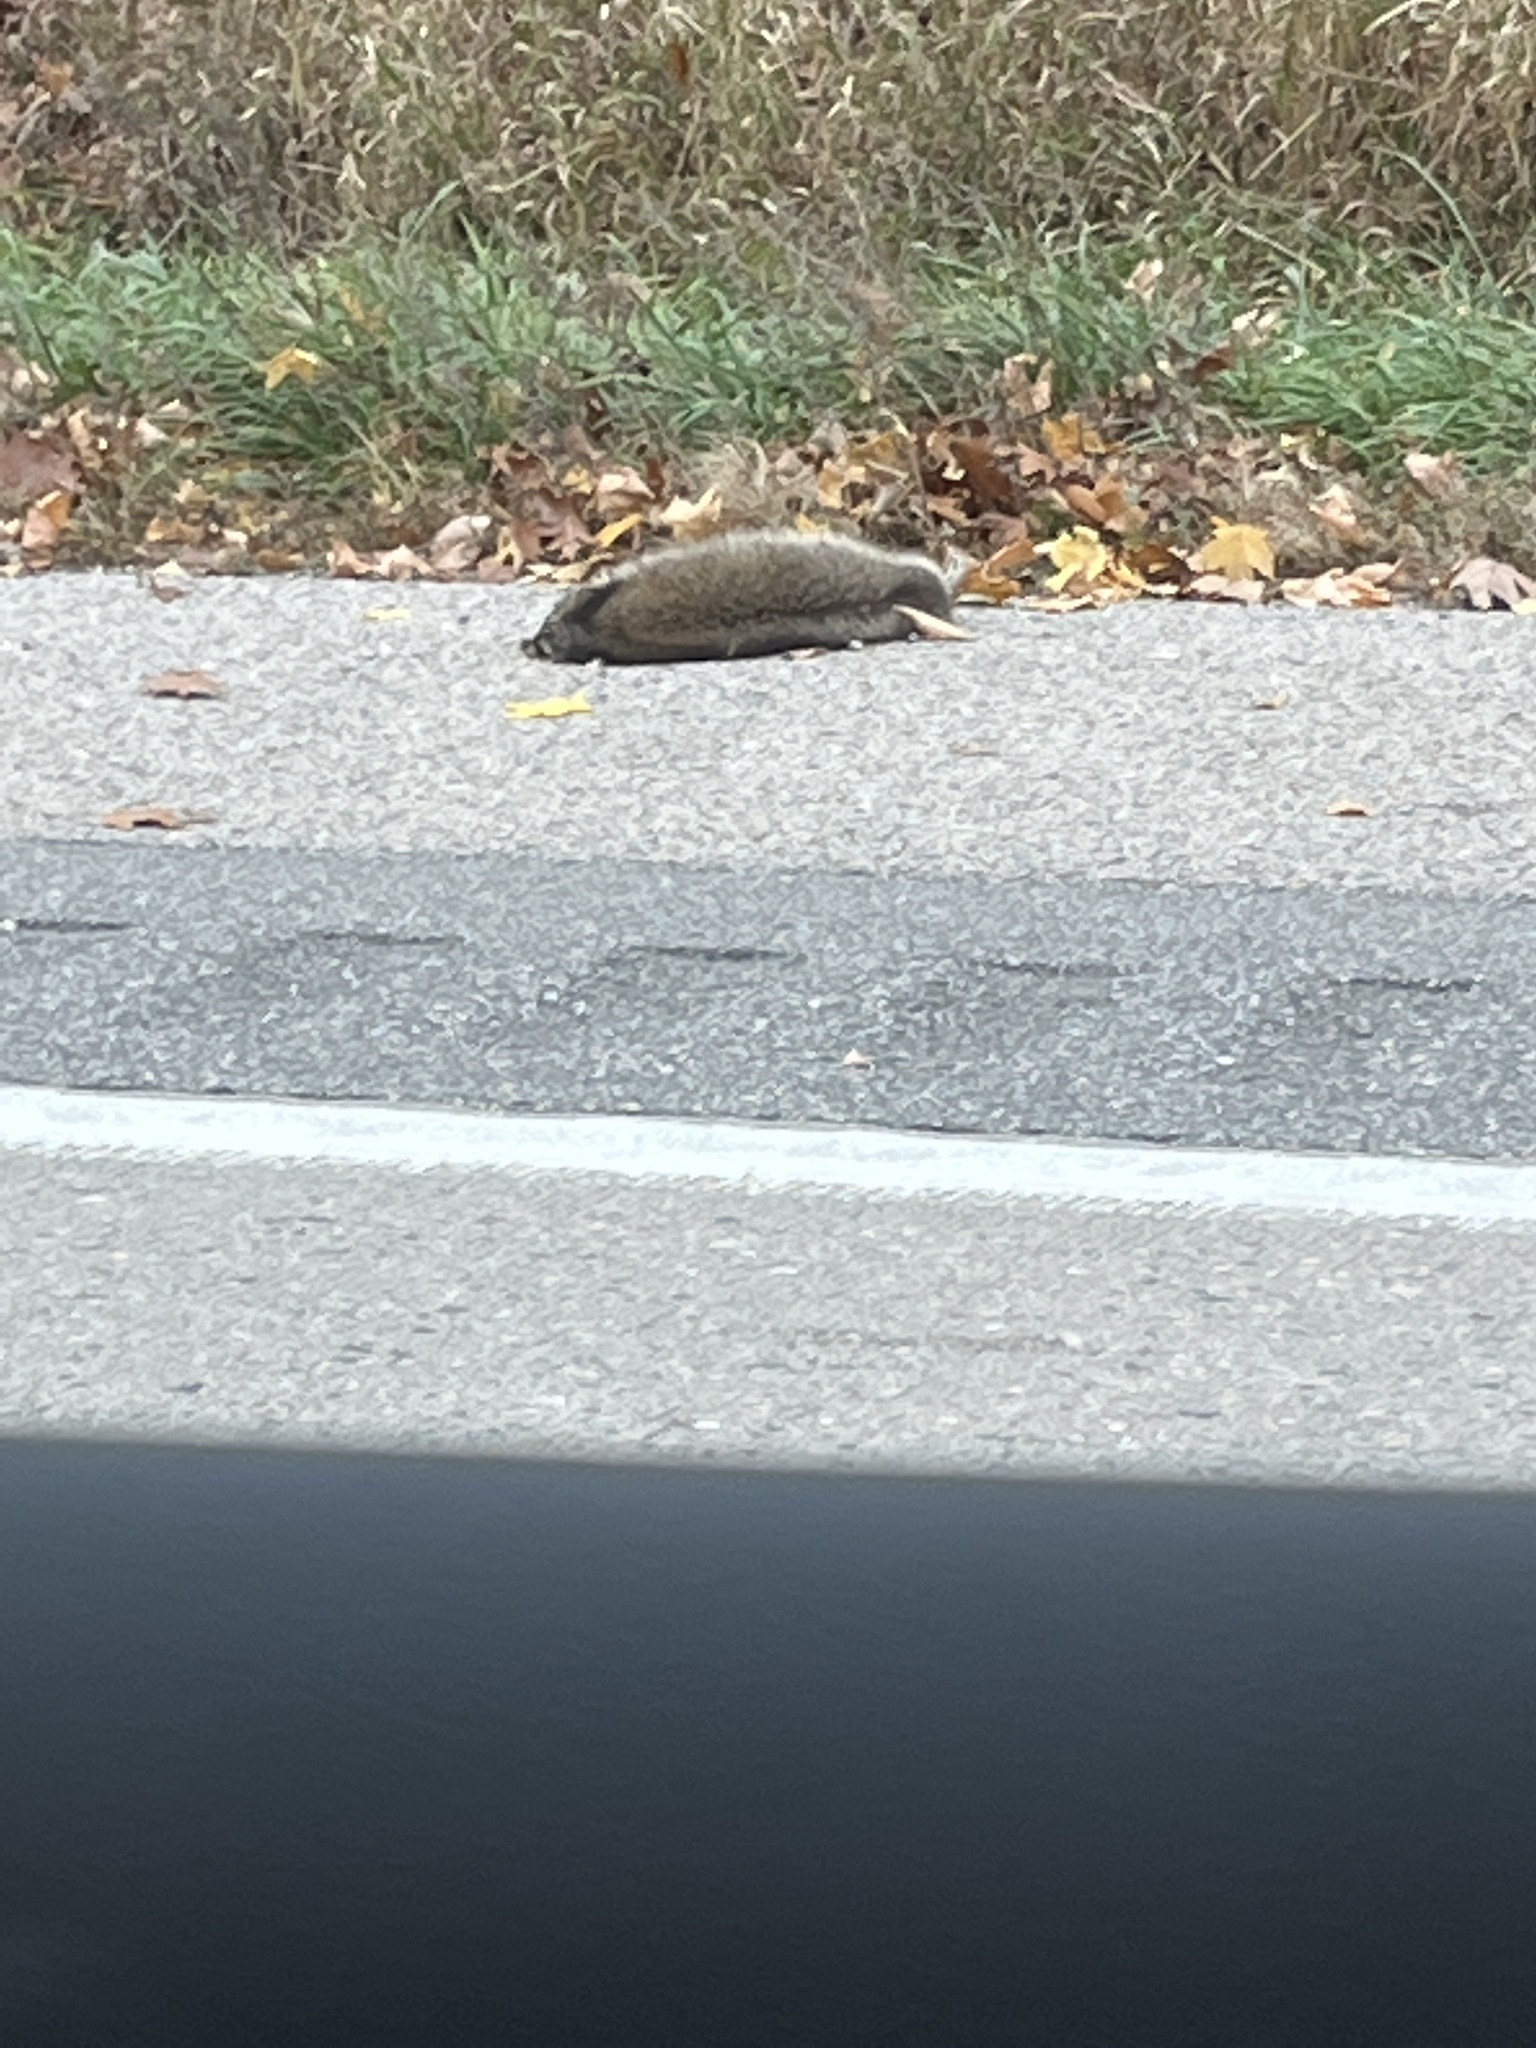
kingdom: Animalia
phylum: Chordata
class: Mammalia
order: Carnivora
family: Procyonidae
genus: Procyon
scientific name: Procyon lotor
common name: Raccoon
